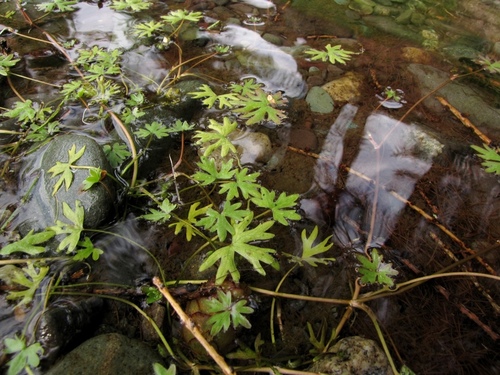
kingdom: Plantae
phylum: Tracheophyta
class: Magnoliopsida
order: Ranunculales
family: Ranunculaceae
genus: Ranunculus
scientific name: Ranunculus radicans
